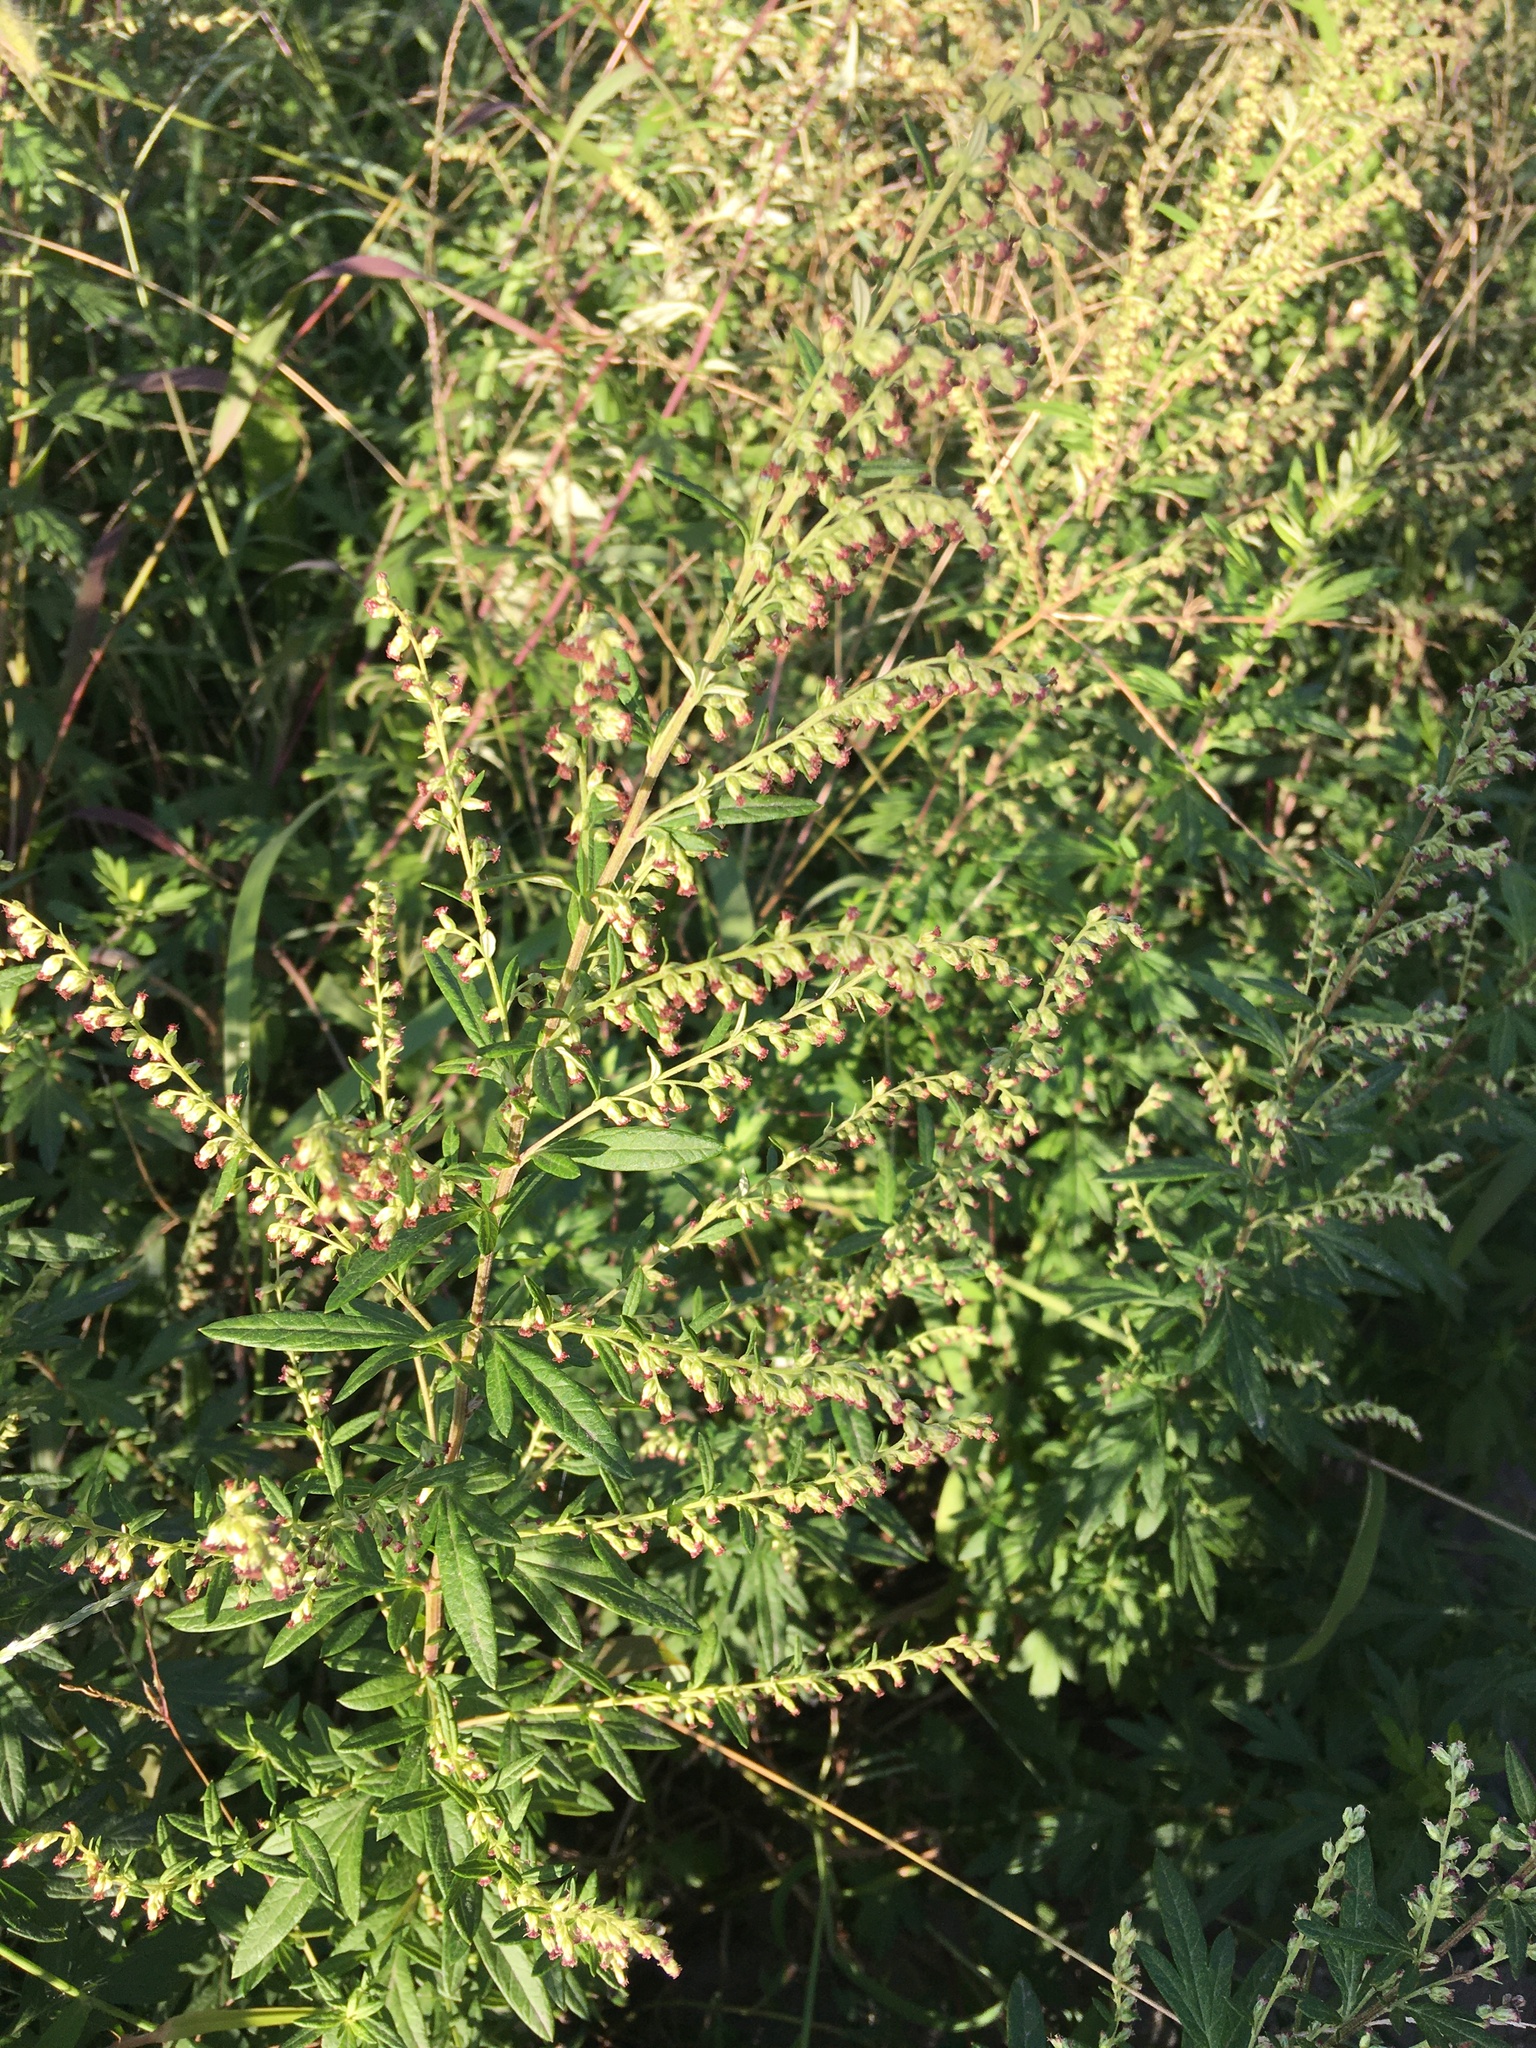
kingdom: Plantae
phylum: Tracheophyta
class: Magnoliopsida
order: Asterales
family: Asteraceae
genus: Artemisia
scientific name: Artemisia vulgaris
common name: Mugwort
